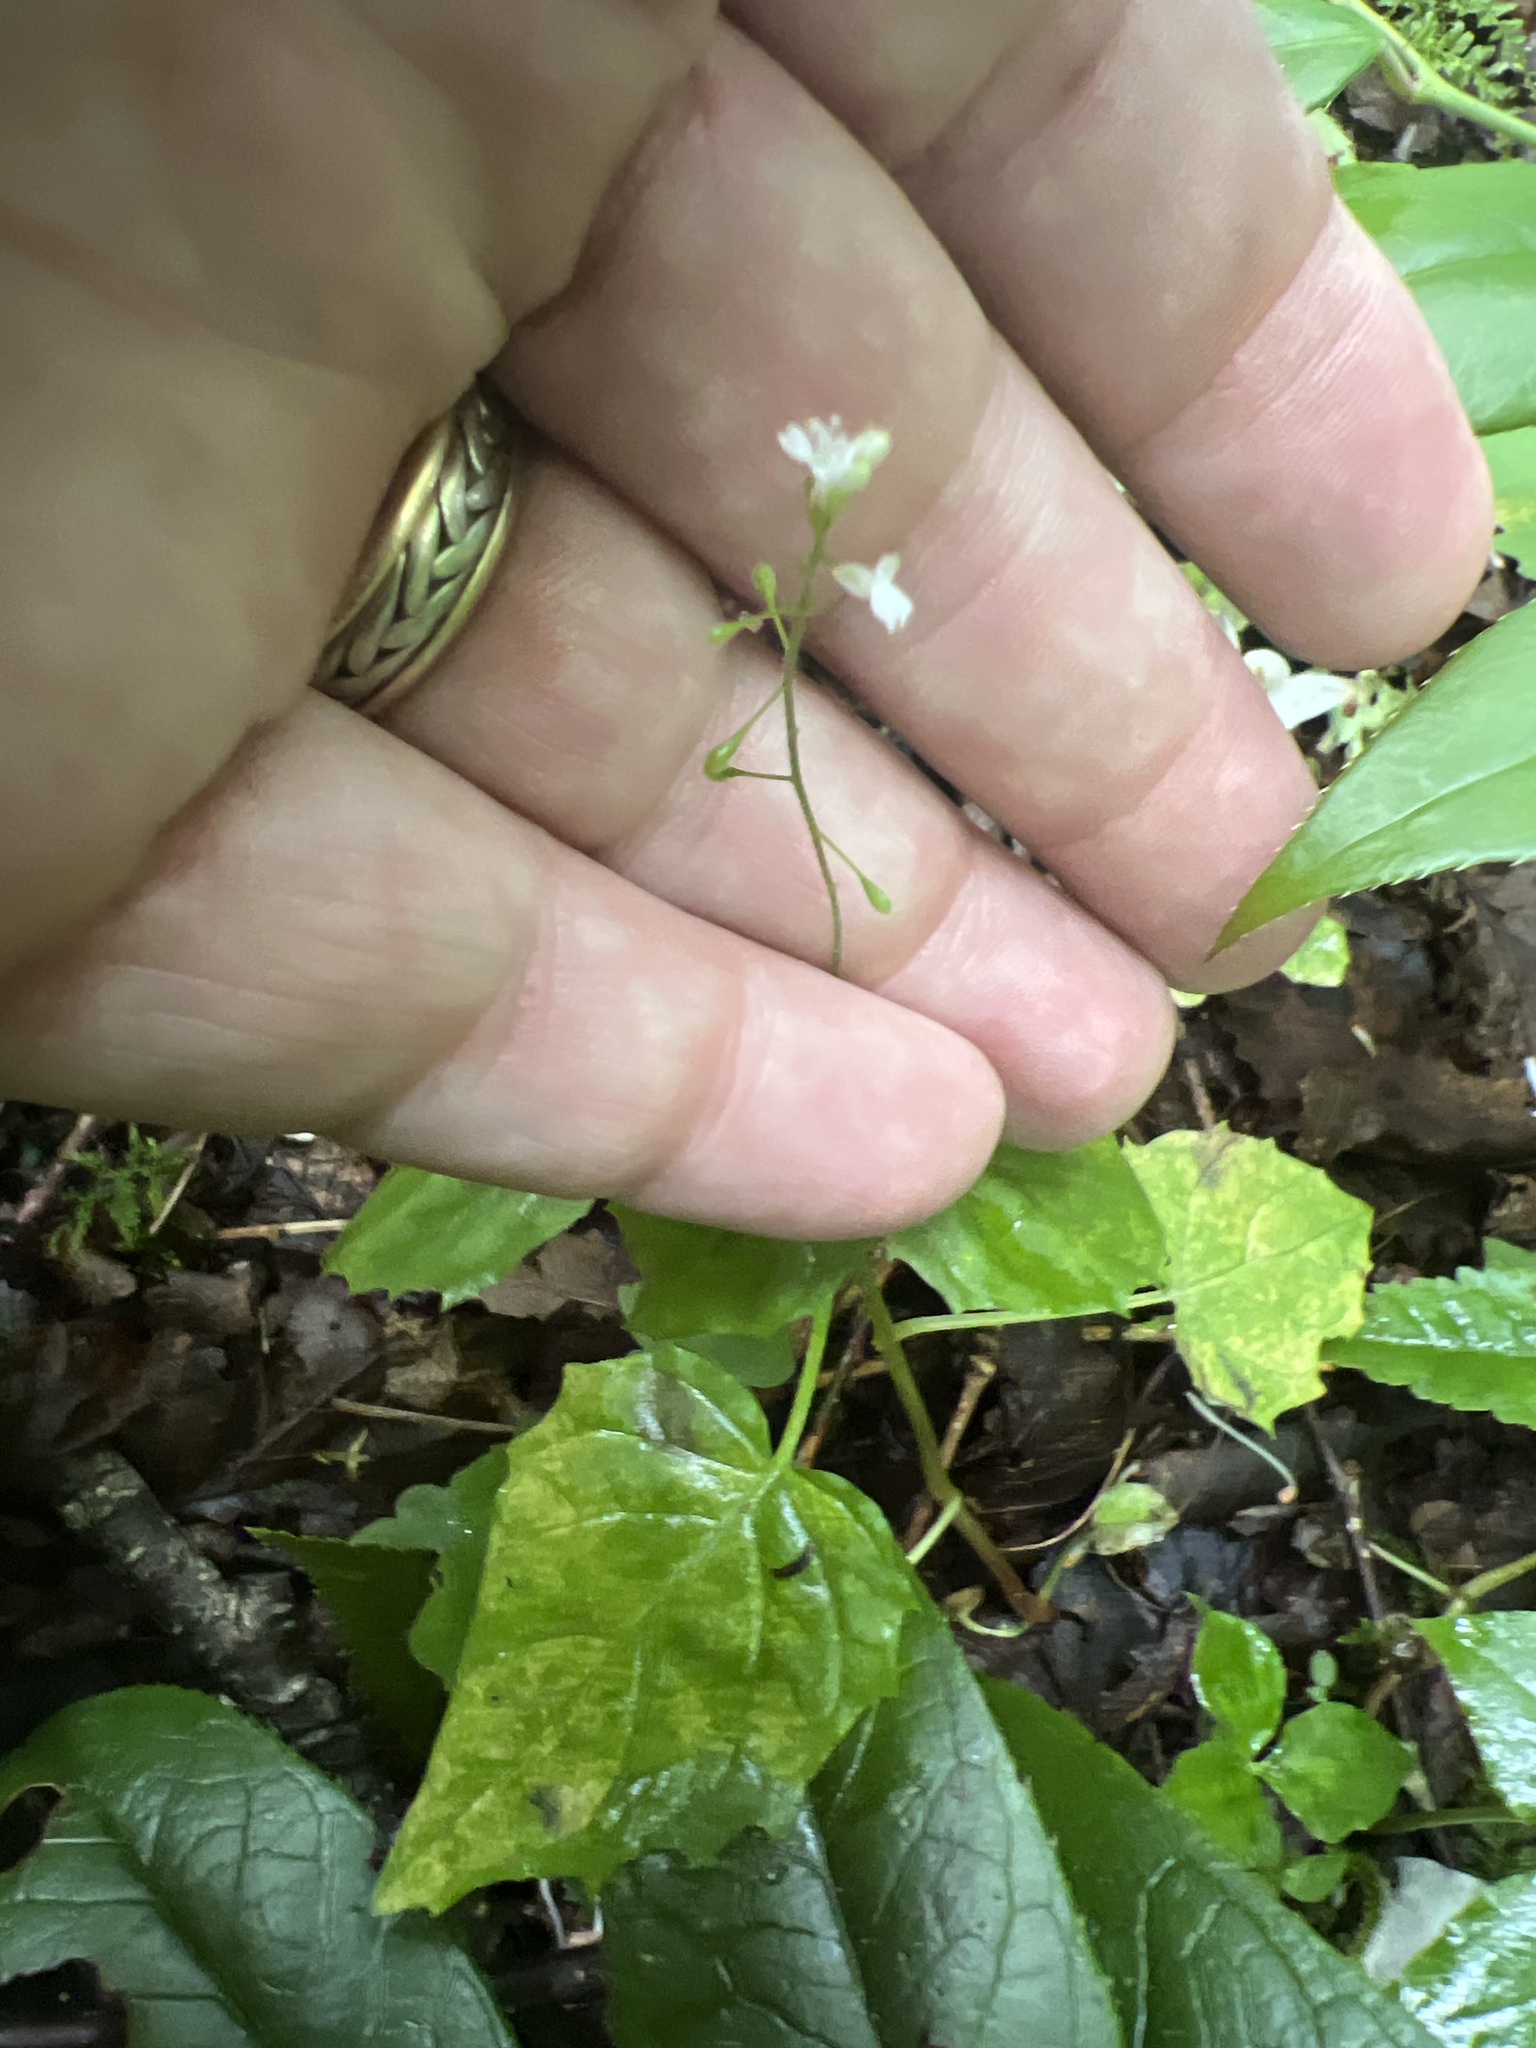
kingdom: Plantae
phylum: Tracheophyta
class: Magnoliopsida
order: Myrtales
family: Onagraceae
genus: Circaea
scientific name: Circaea alpina
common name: Alpine enchanter's-nightshade
